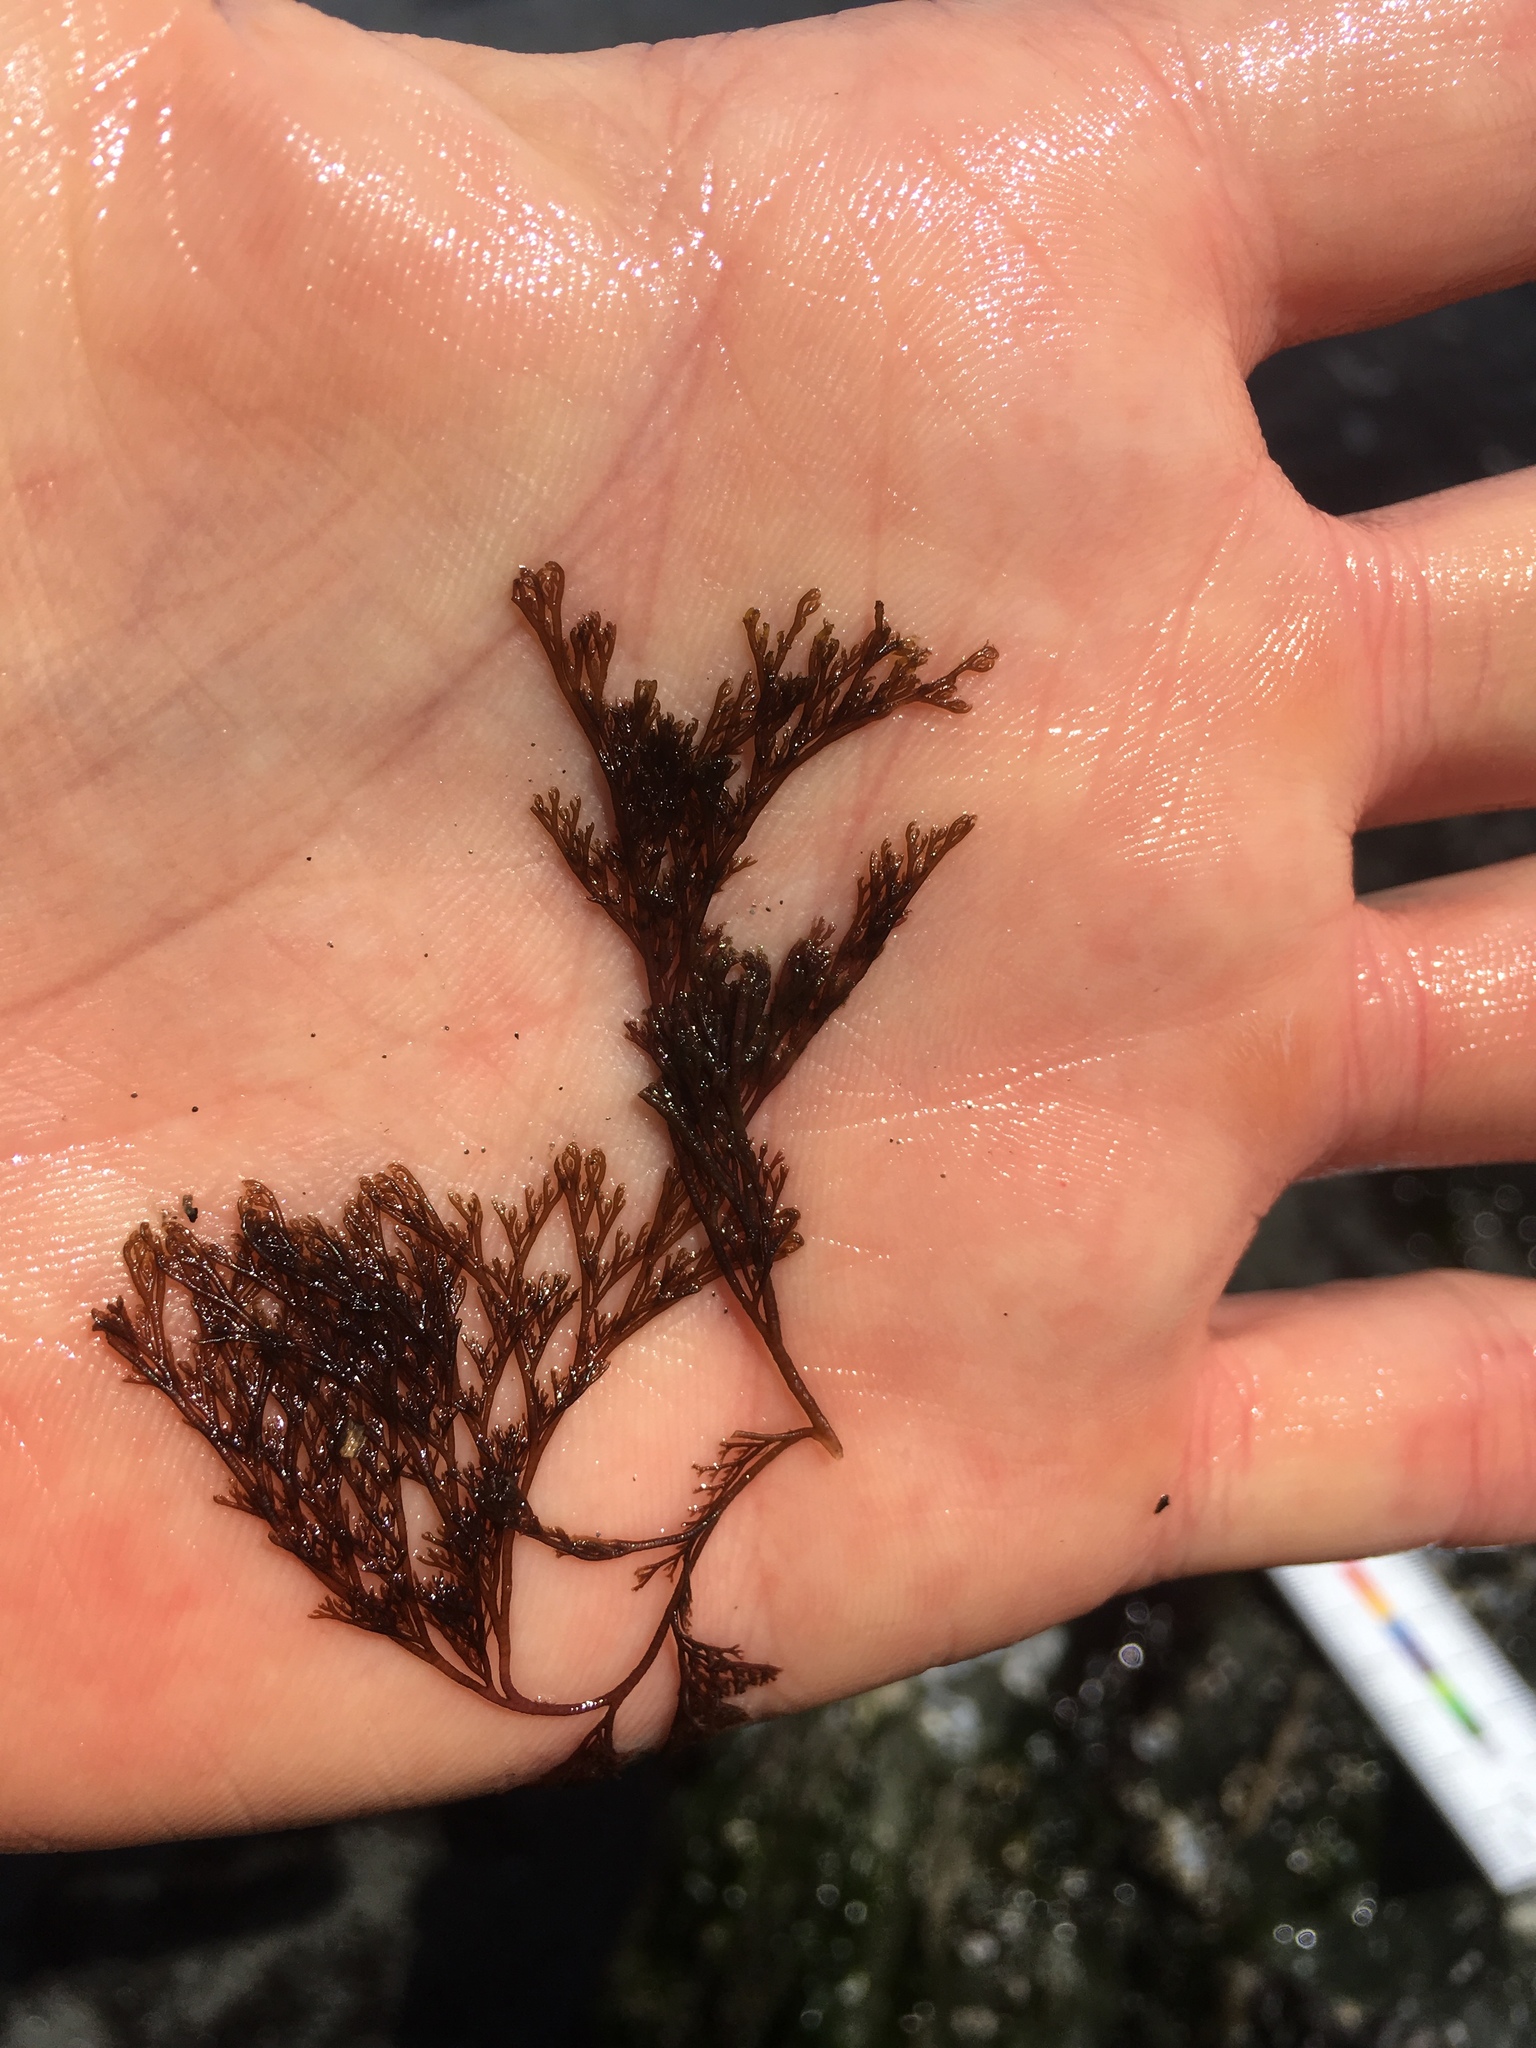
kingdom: Plantae
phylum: Rhodophyta
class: Florideophyceae
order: Ceramiales
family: Ceramiaceae
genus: Microcladia
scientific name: Microcladia borealis
